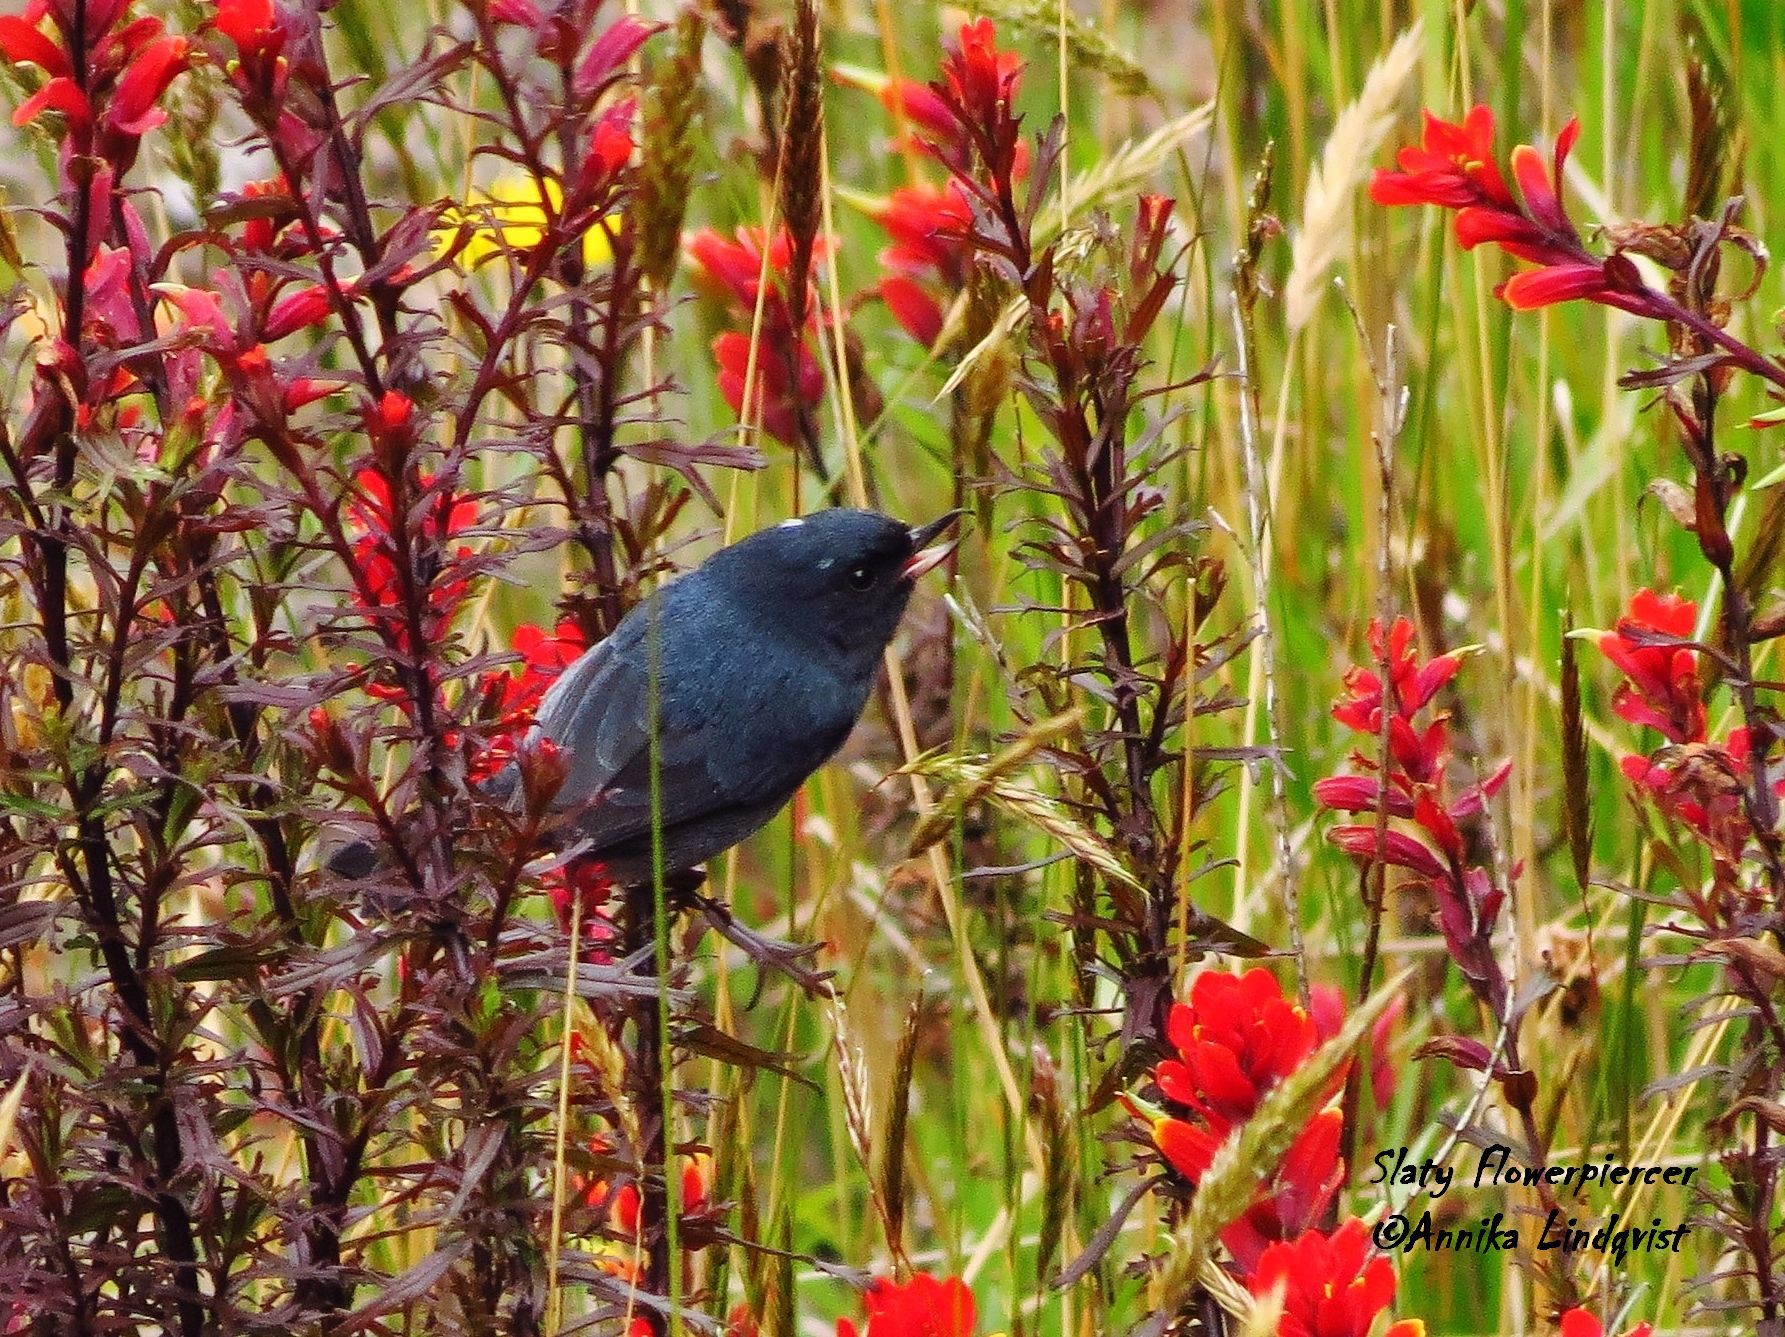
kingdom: Animalia
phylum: Chordata
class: Aves
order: Passeriformes
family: Thraupidae
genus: Diglossa
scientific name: Diglossa plumbea
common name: Slaty flowerpiercer
